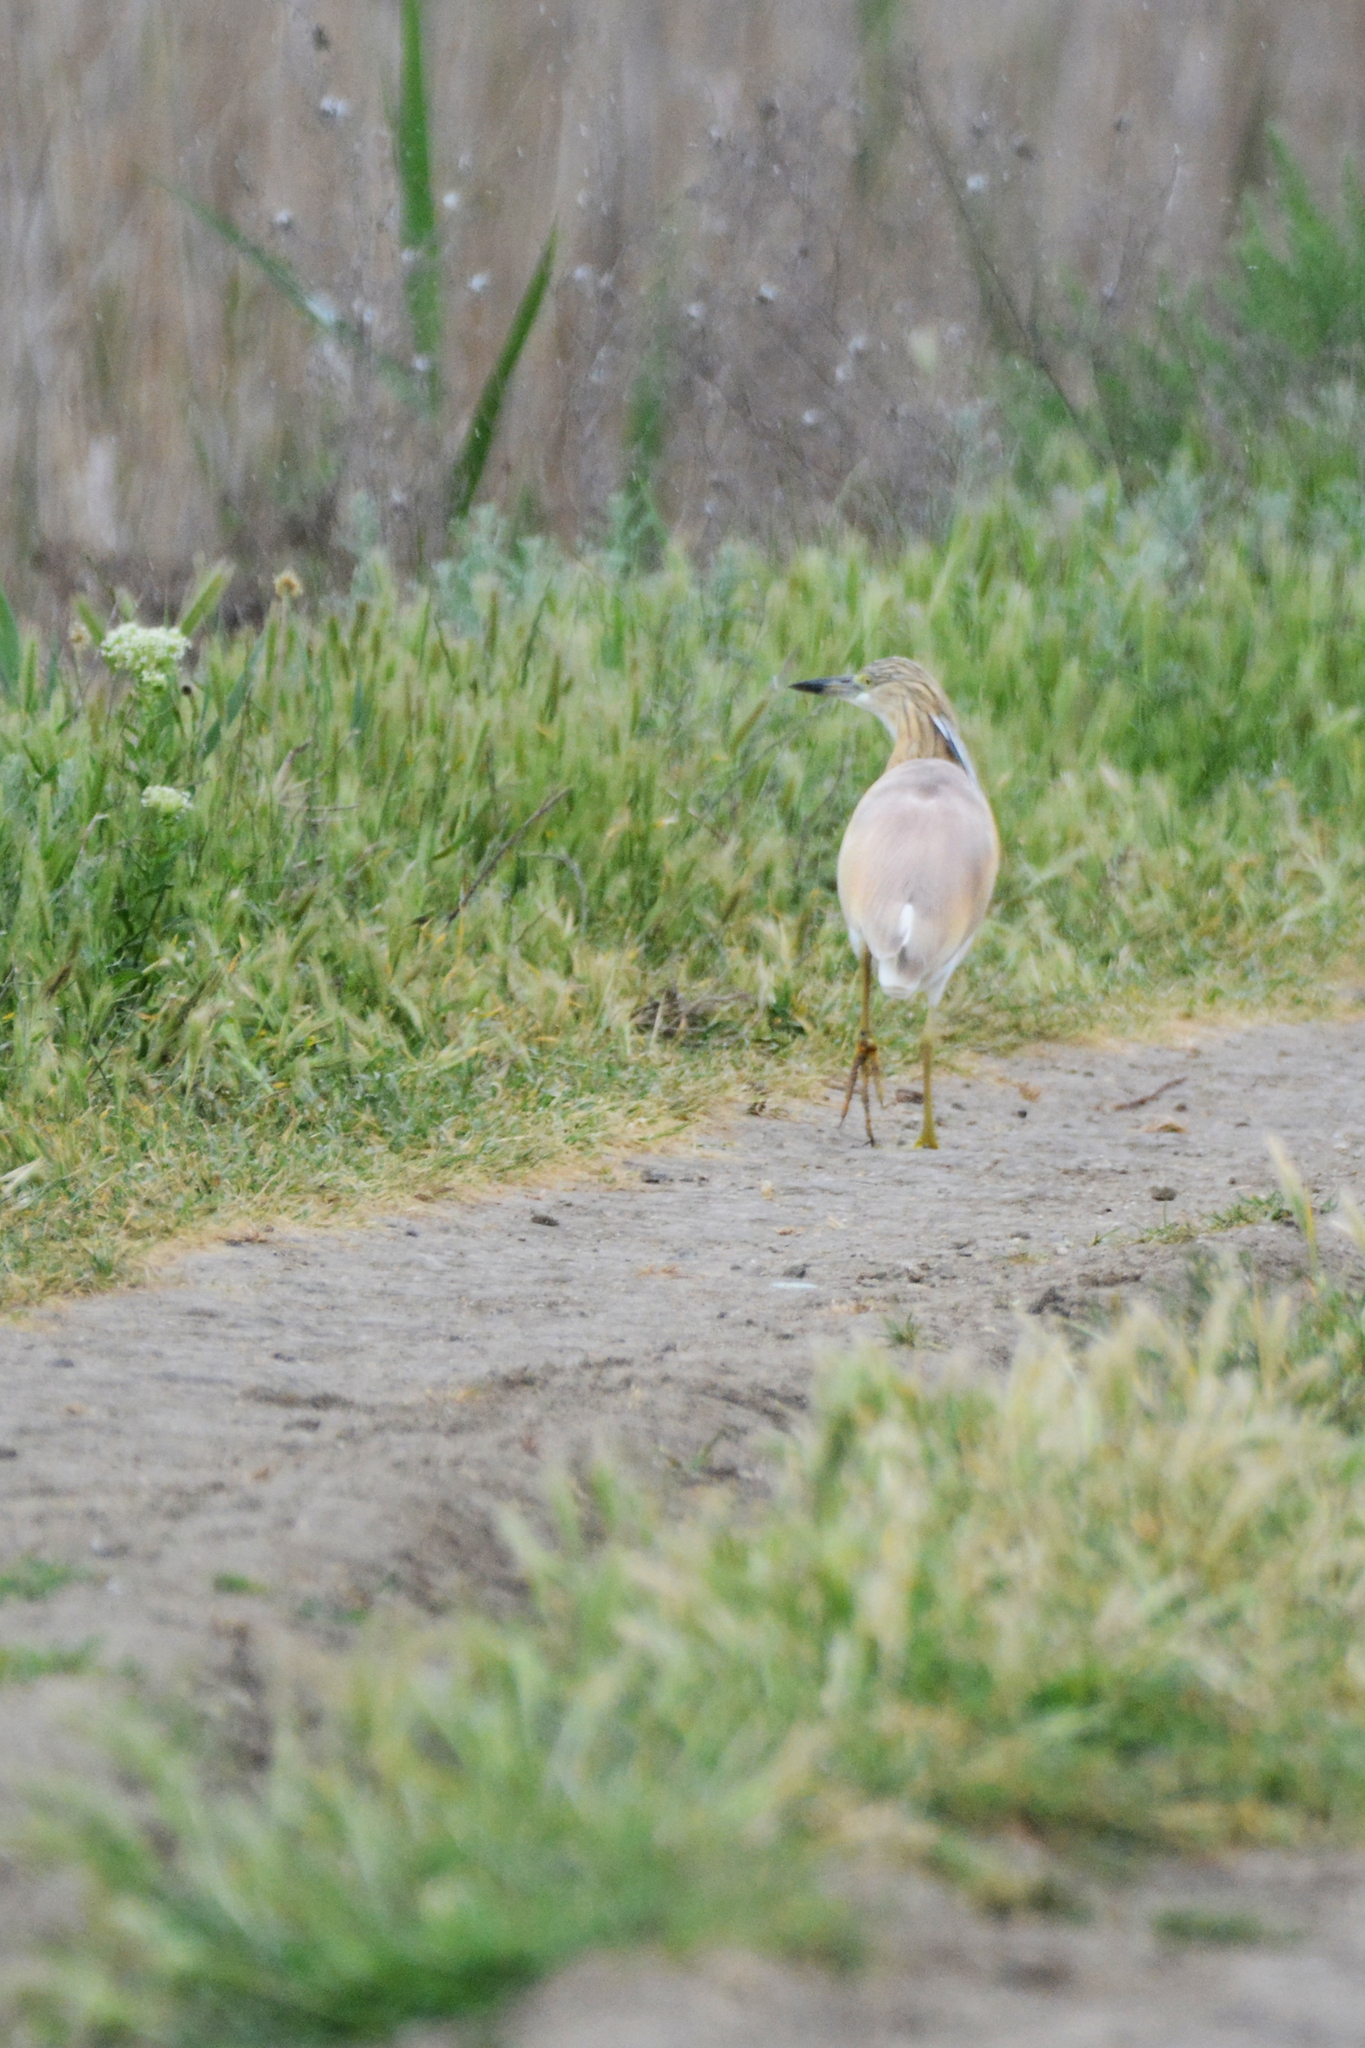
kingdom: Animalia
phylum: Chordata
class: Aves
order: Pelecaniformes
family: Ardeidae
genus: Ardeola
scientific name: Ardeola ralloides
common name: Squacco heron
